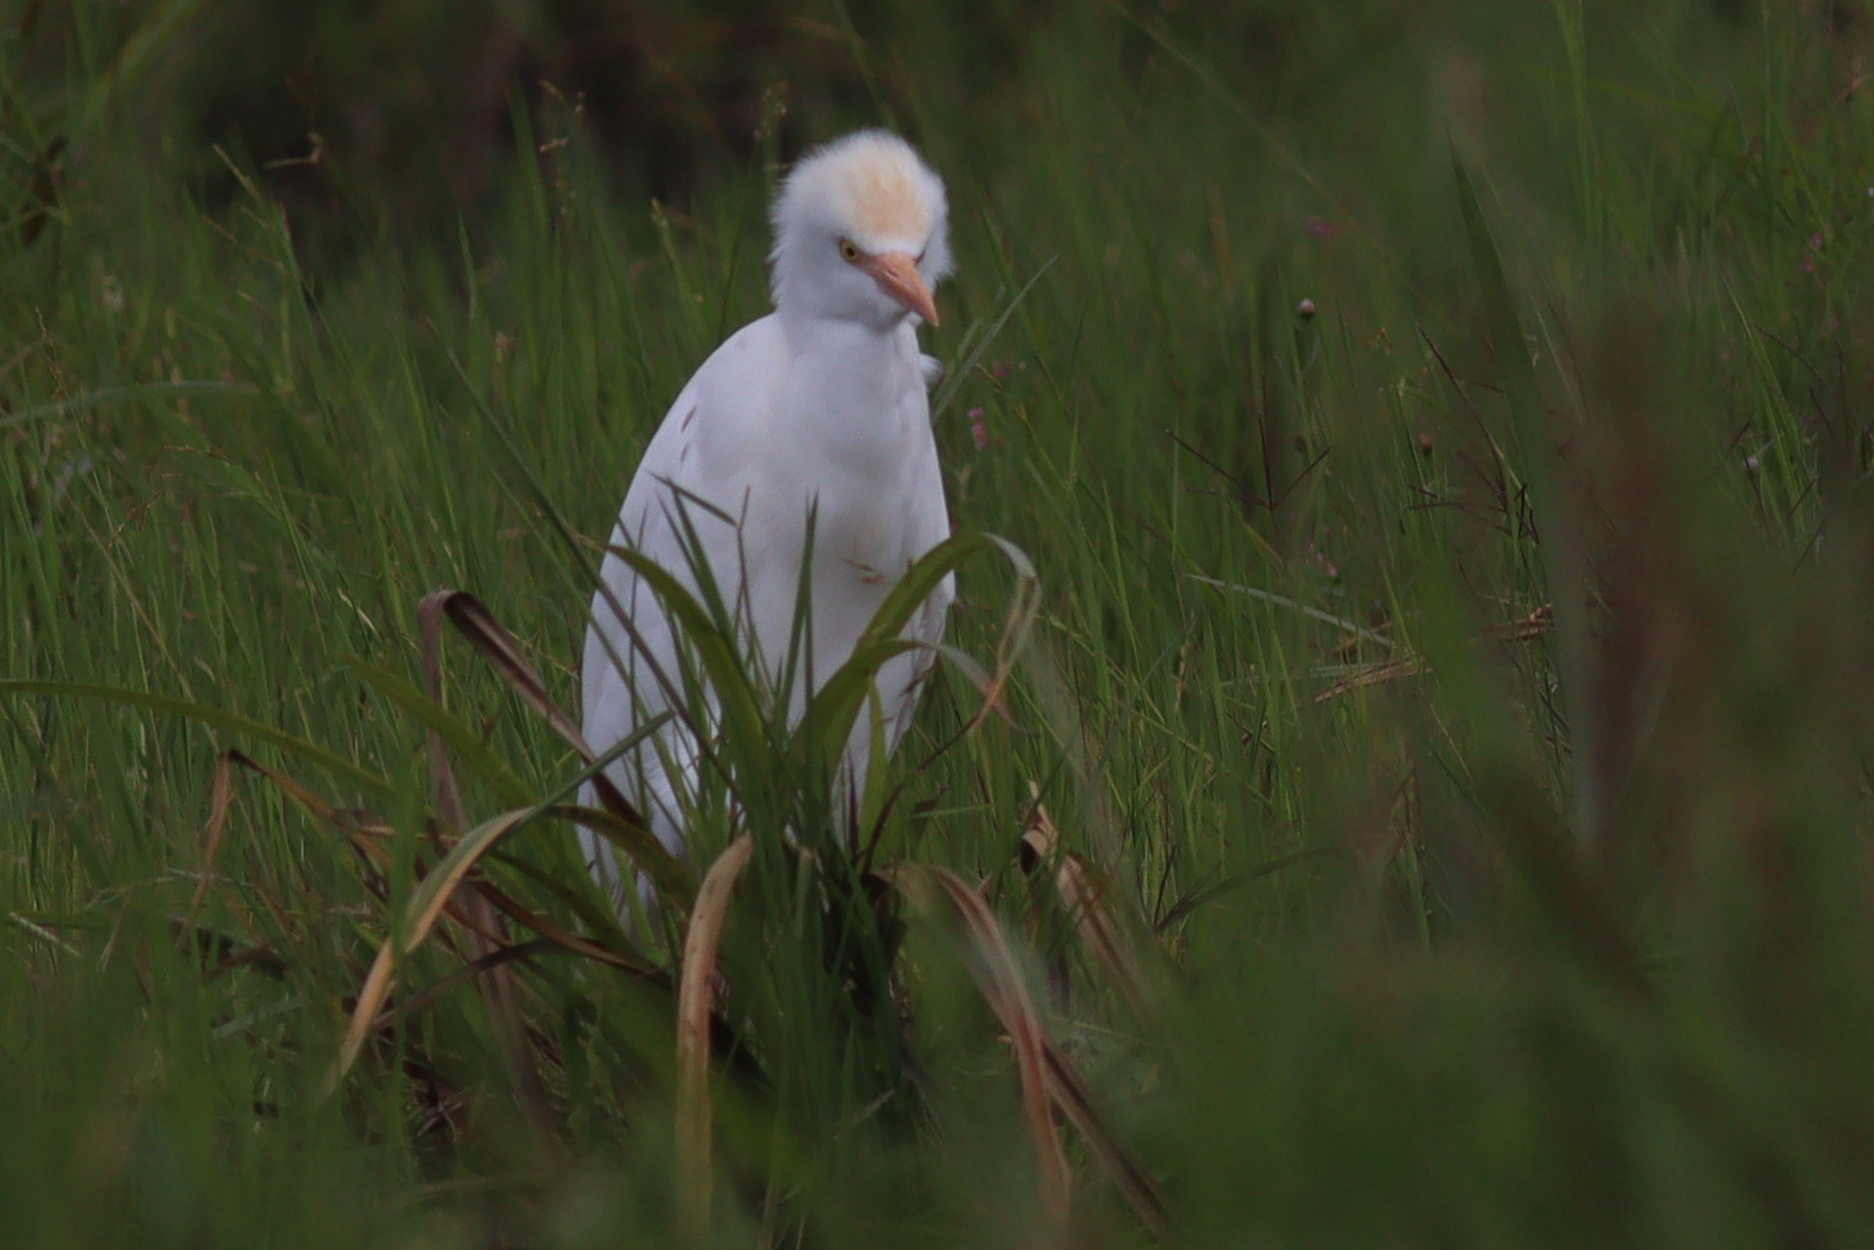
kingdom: Animalia
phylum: Chordata
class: Aves
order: Pelecaniformes
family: Ardeidae
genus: Bubulcus
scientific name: Bubulcus ibis
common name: Cattle egret
